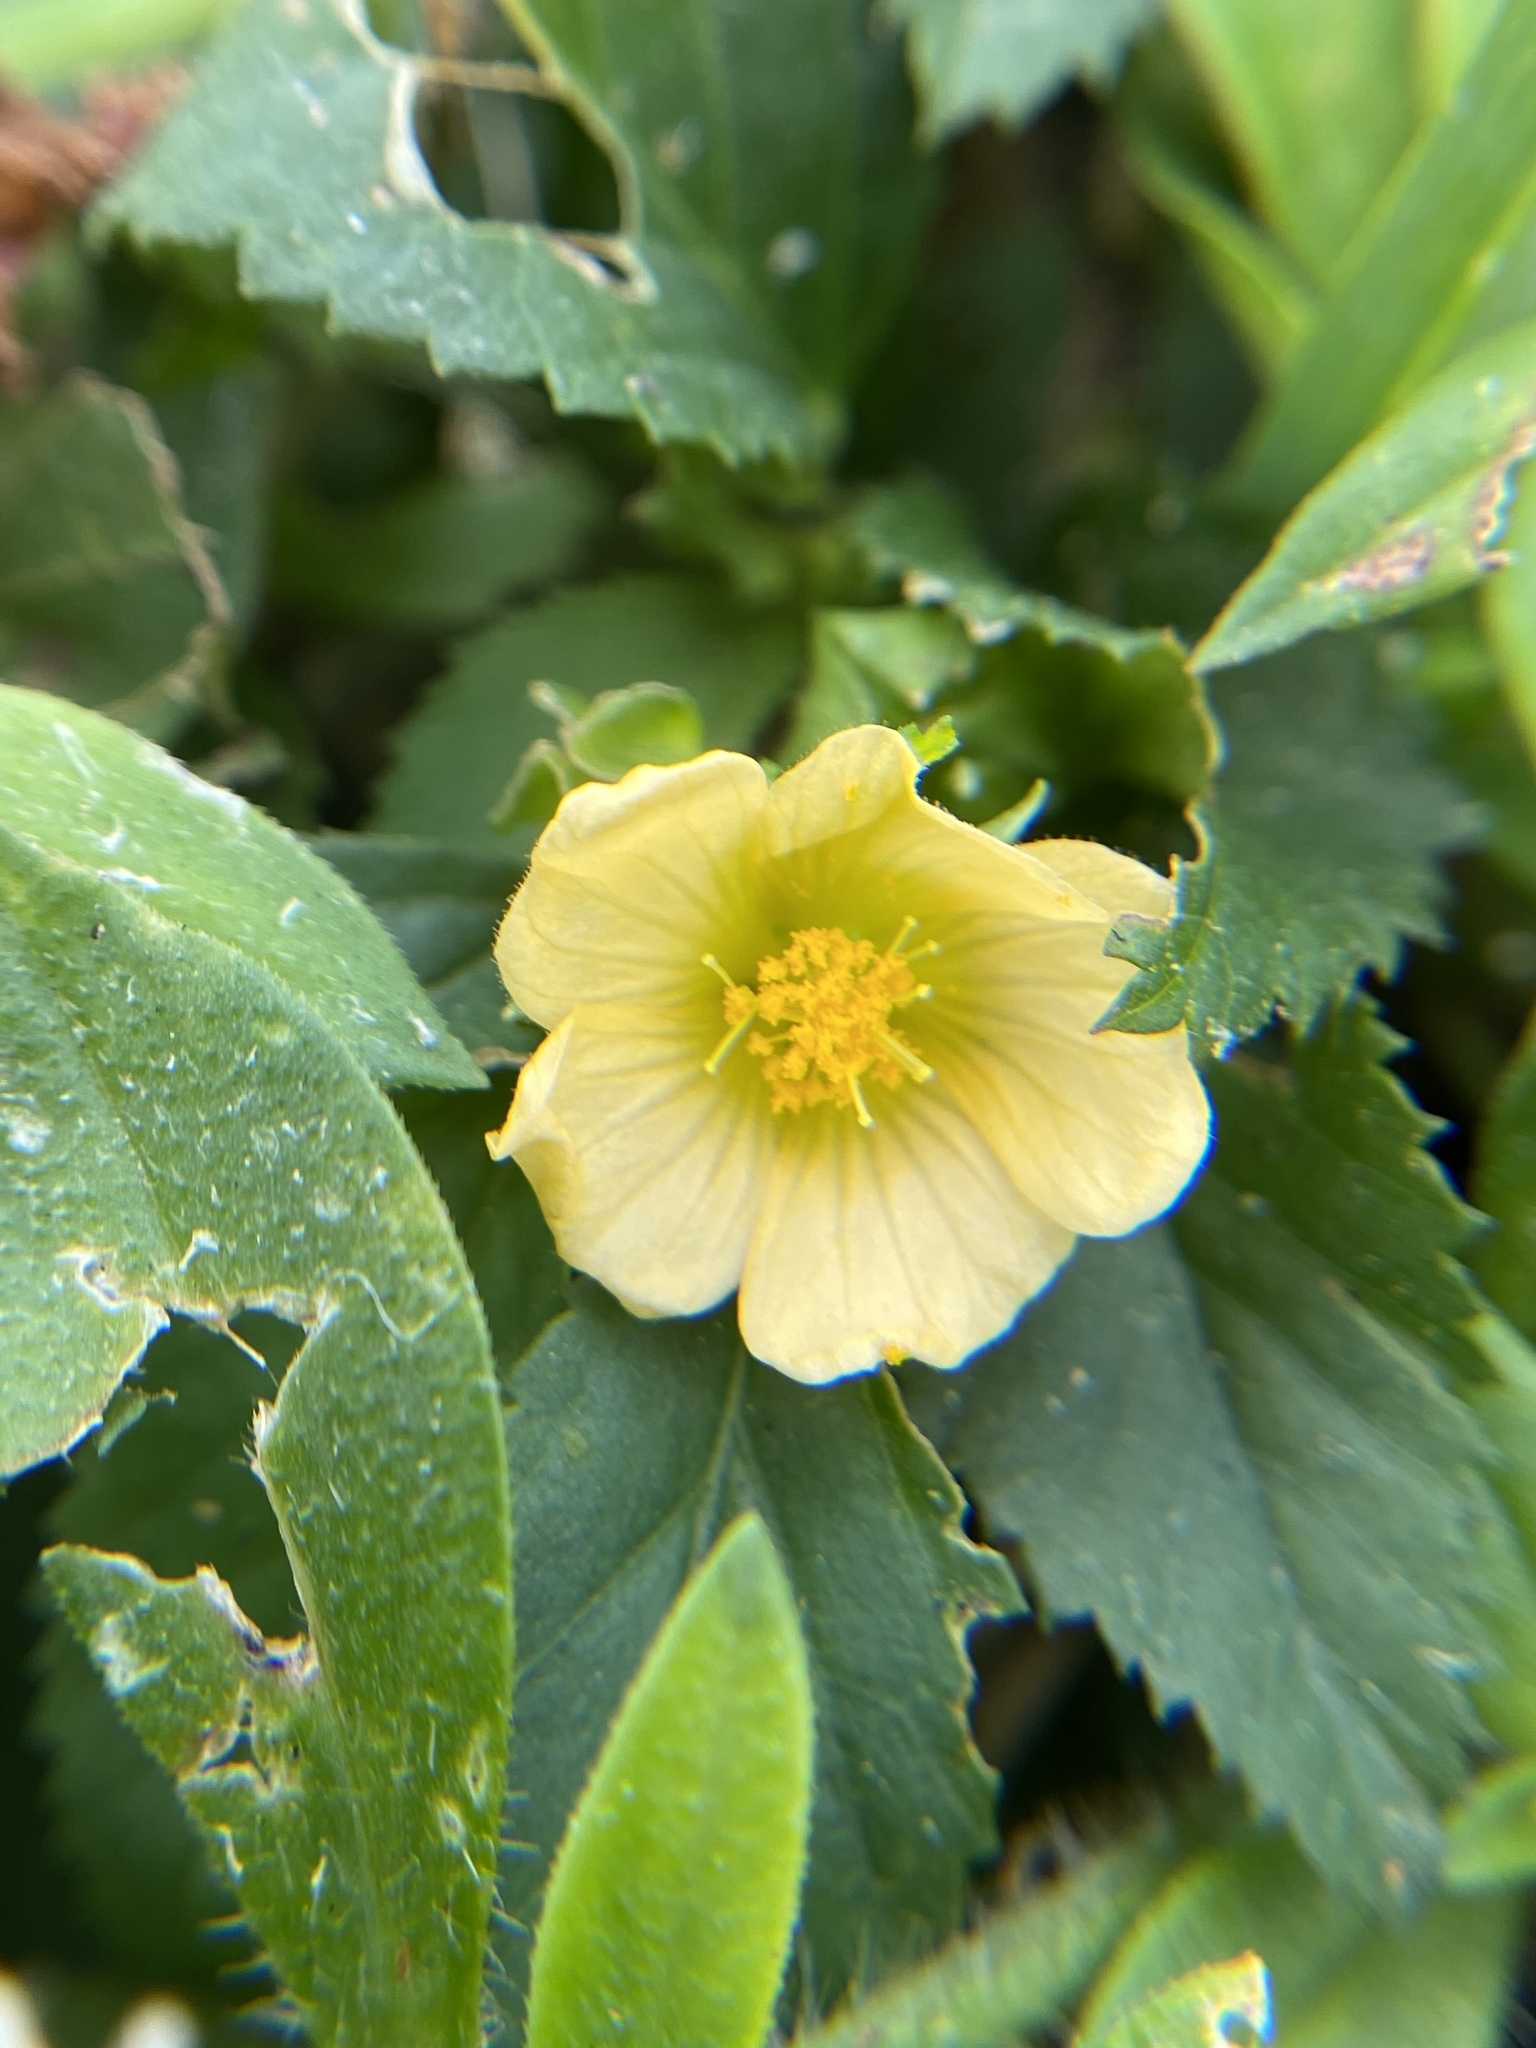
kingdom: Plantae
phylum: Tracheophyta
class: Magnoliopsida
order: Malvales
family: Malvaceae
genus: Sida
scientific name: Sida rhombifolia
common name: Queensland-hemp
